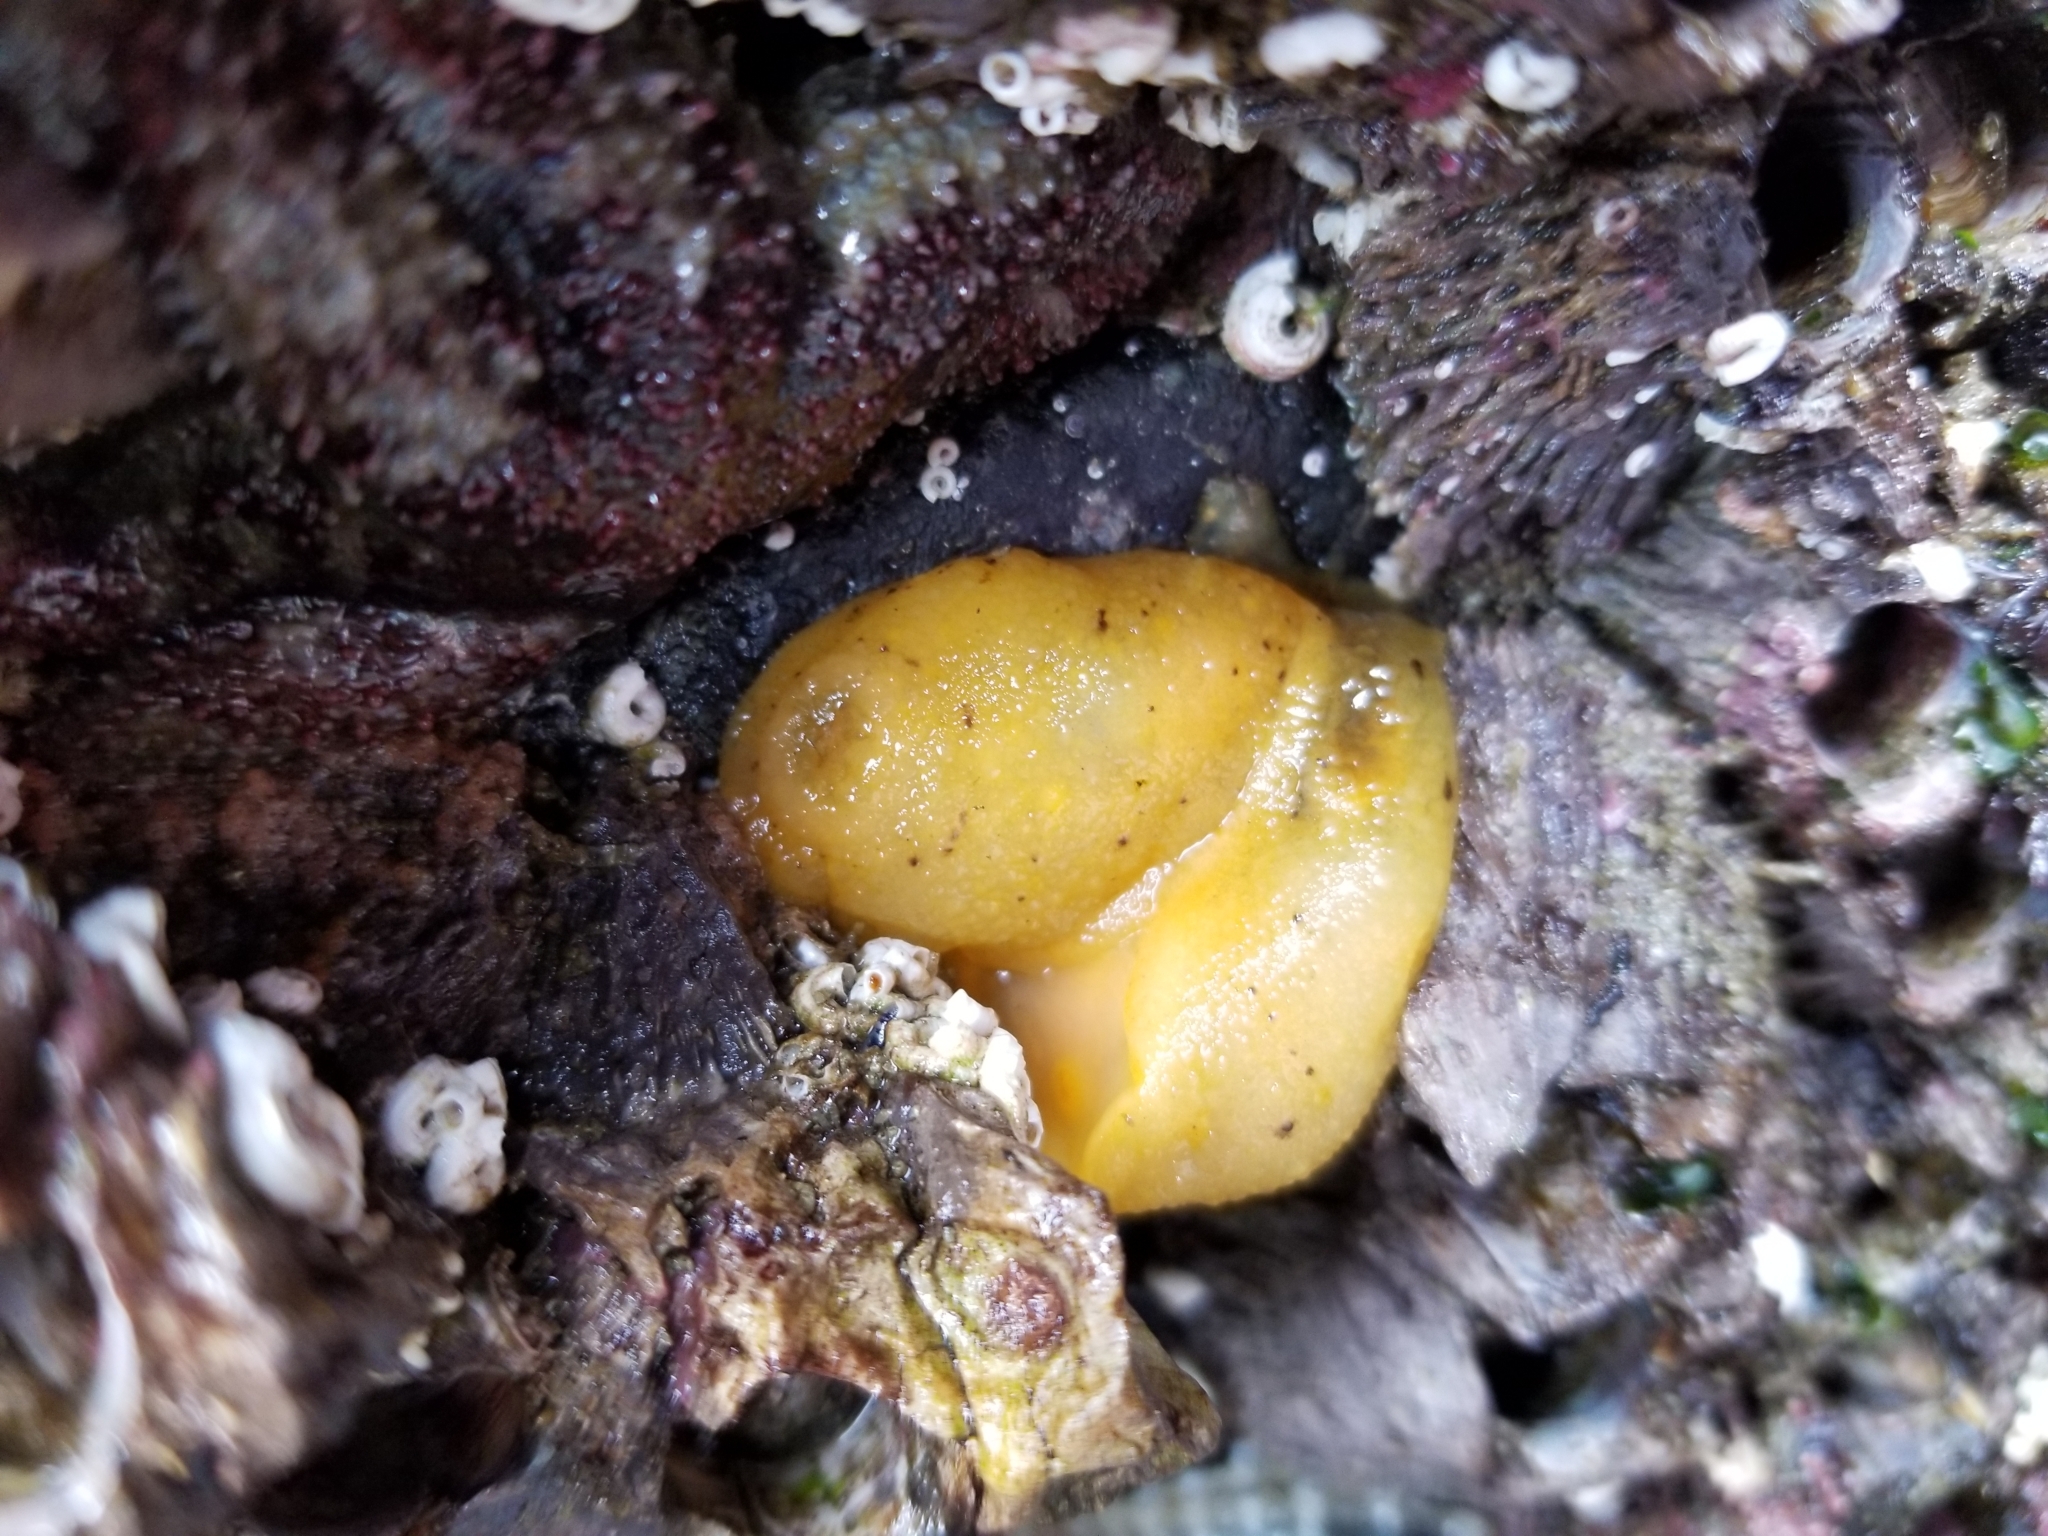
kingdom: Animalia
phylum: Mollusca
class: Gastropoda
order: Nudibranchia
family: Dorididae
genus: Doris
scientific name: Doris montereyensis
